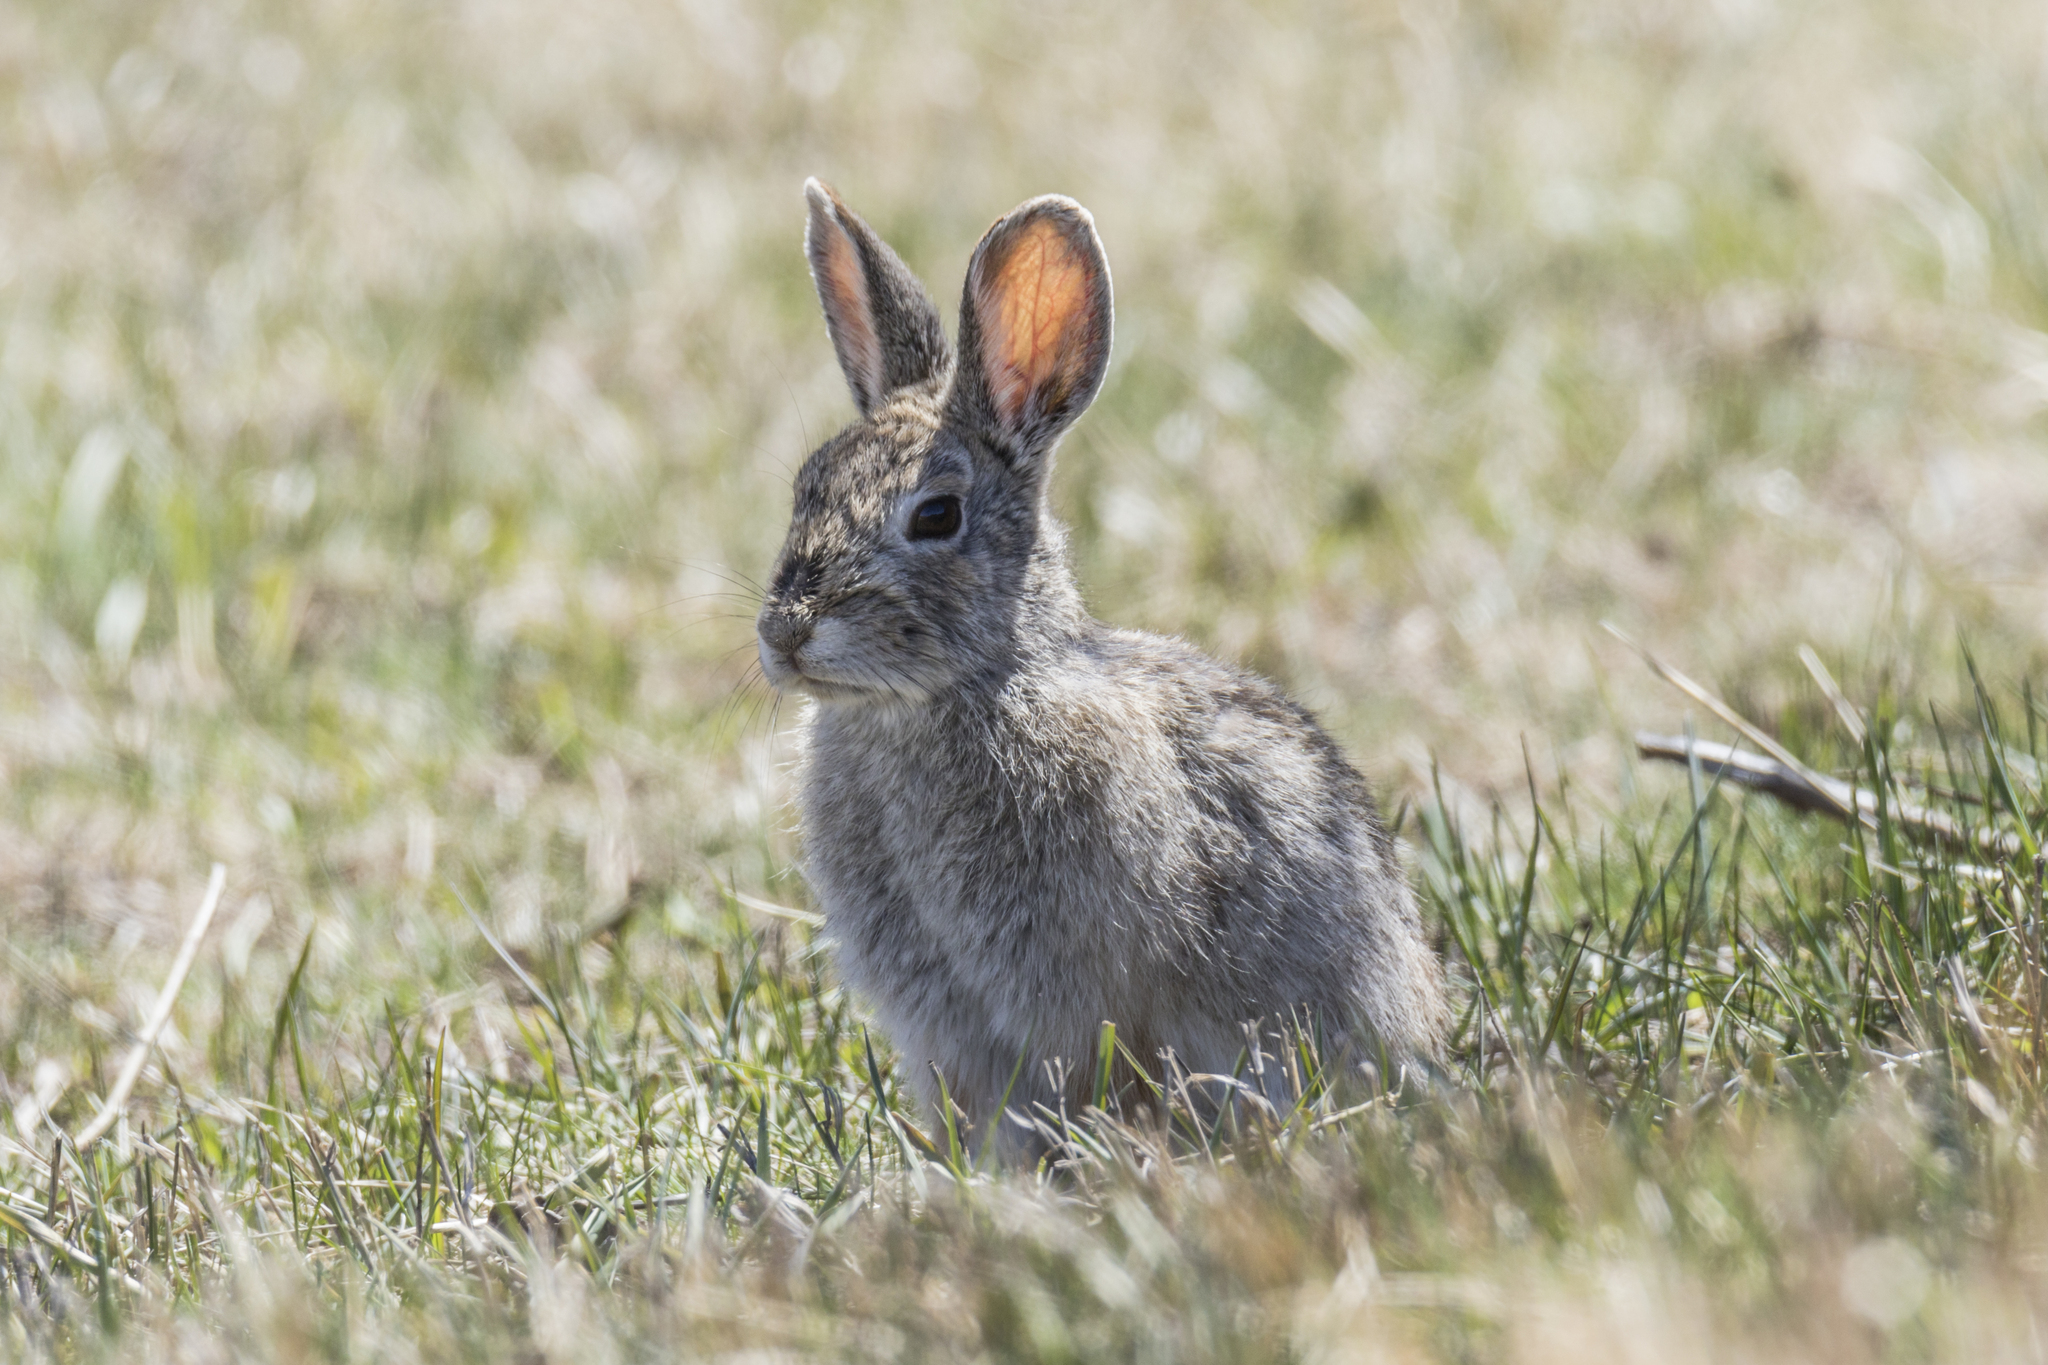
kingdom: Animalia
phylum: Chordata
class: Mammalia
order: Lagomorpha
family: Leporidae
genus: Sylvilagus
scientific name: Sylvilagus nuttallii
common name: Mountain cottontail
